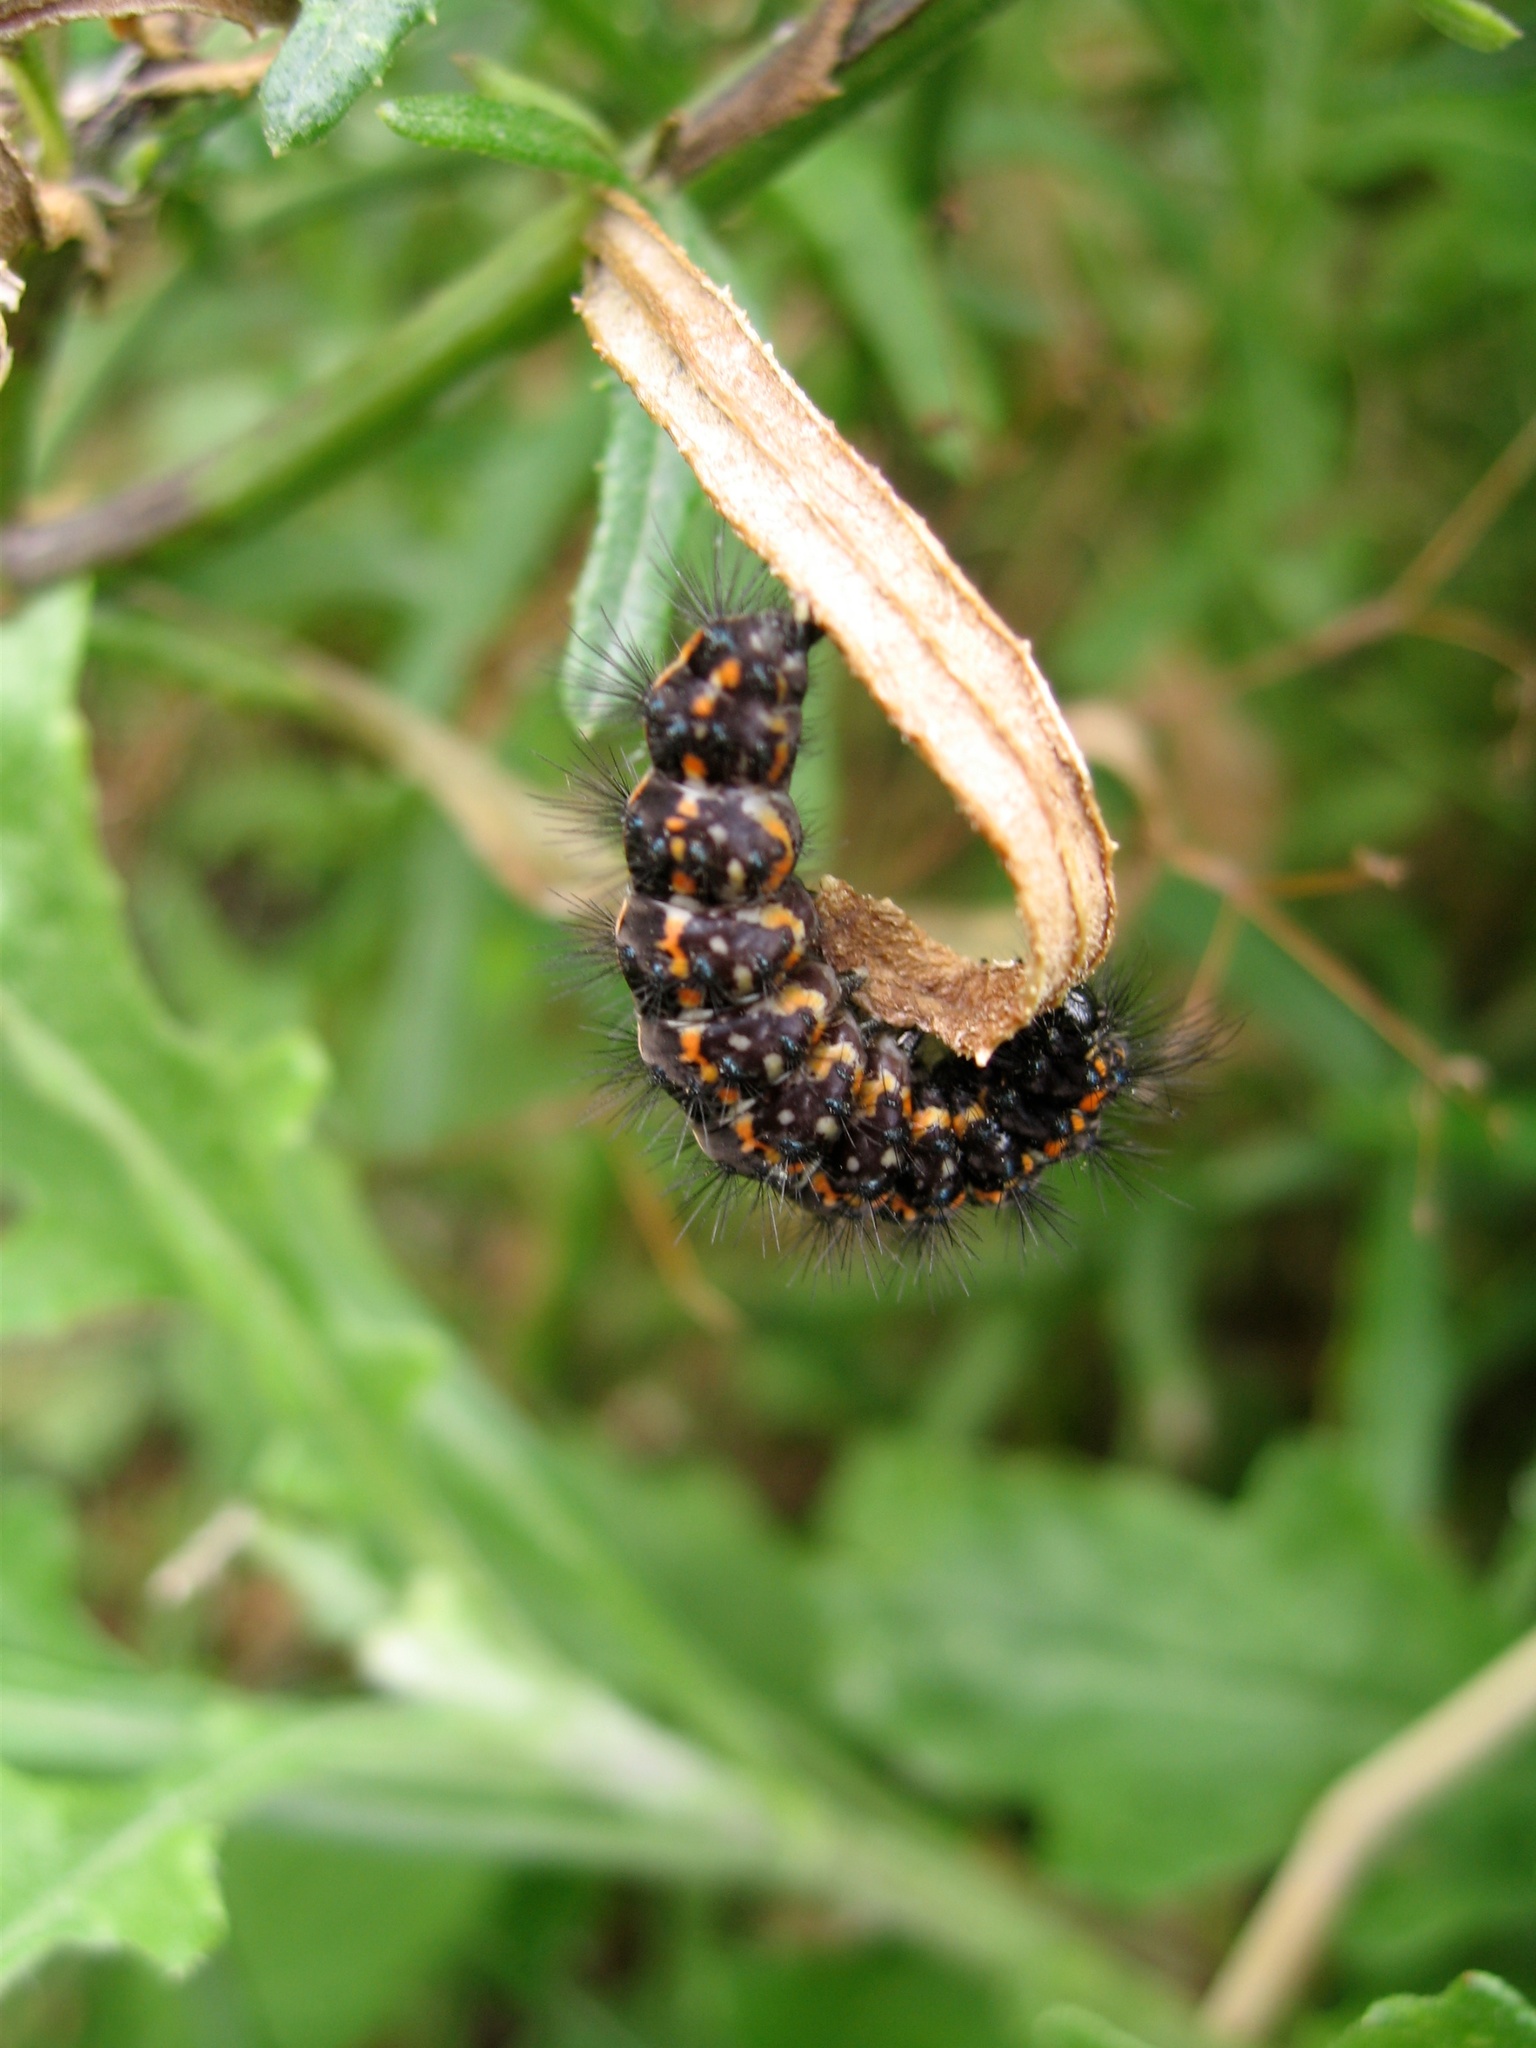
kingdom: Animalia
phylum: Arthropoda
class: Insecta
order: Lepidoptera
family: Erebidae
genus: Nyctemera
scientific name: Nyctemera annulatum
